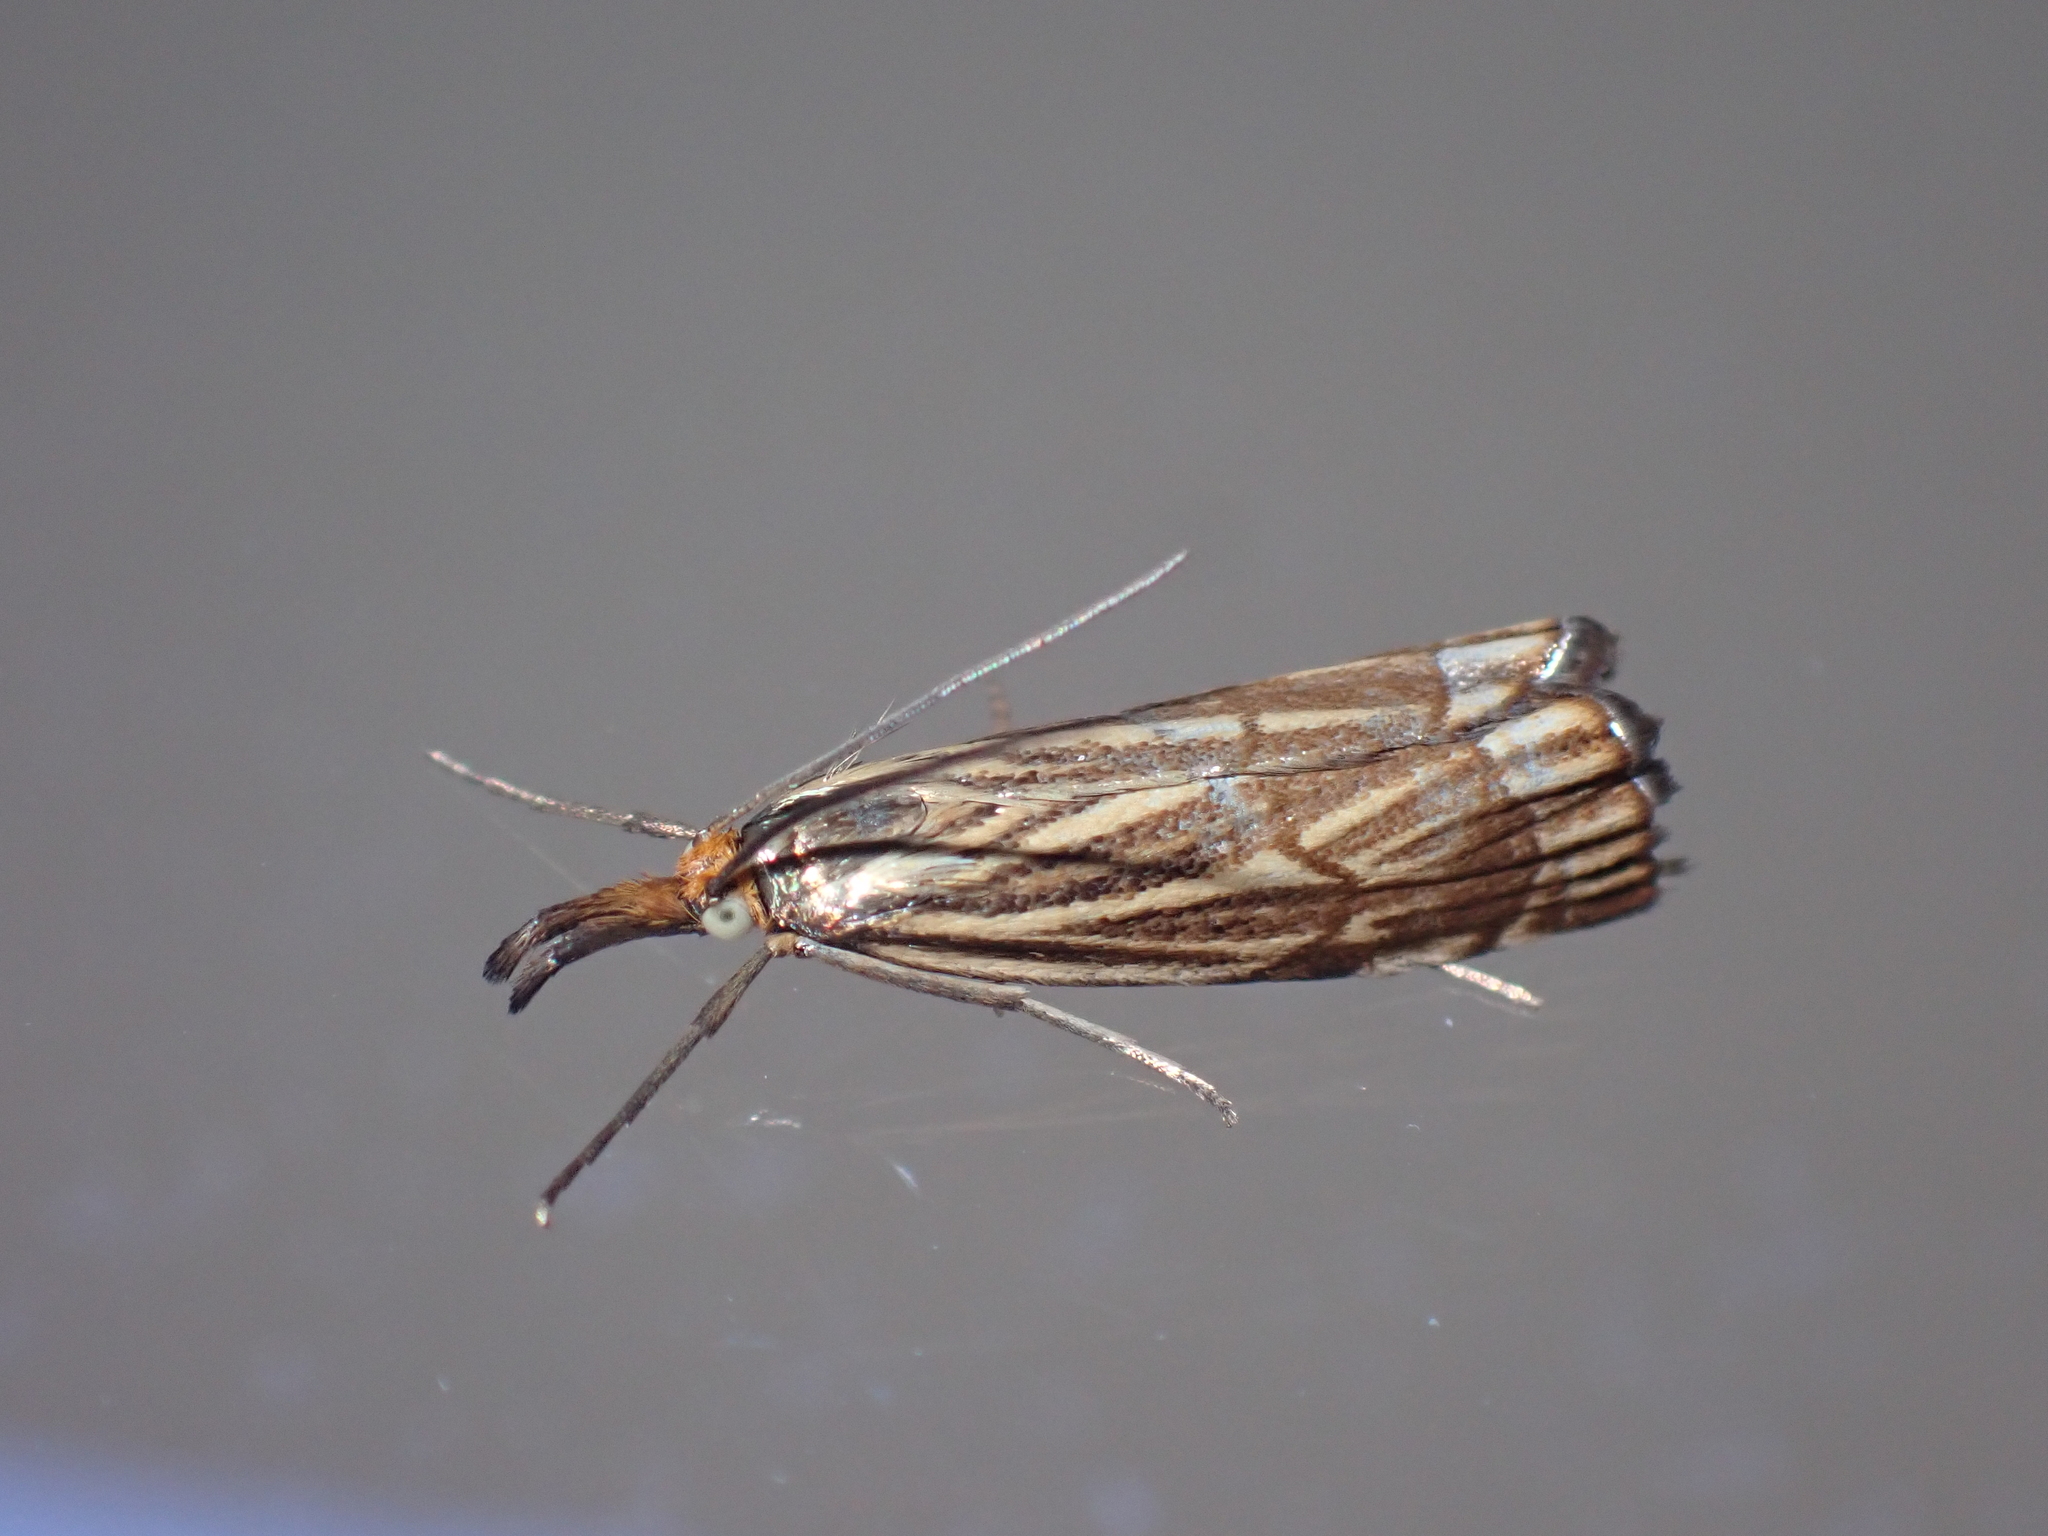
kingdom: Animalia
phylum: Arthropoda
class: Insecta
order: Lepidoptera
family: Crambidae
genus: Chrysocrambus
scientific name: Chrysocrambus Chrysocramboides craterellus
